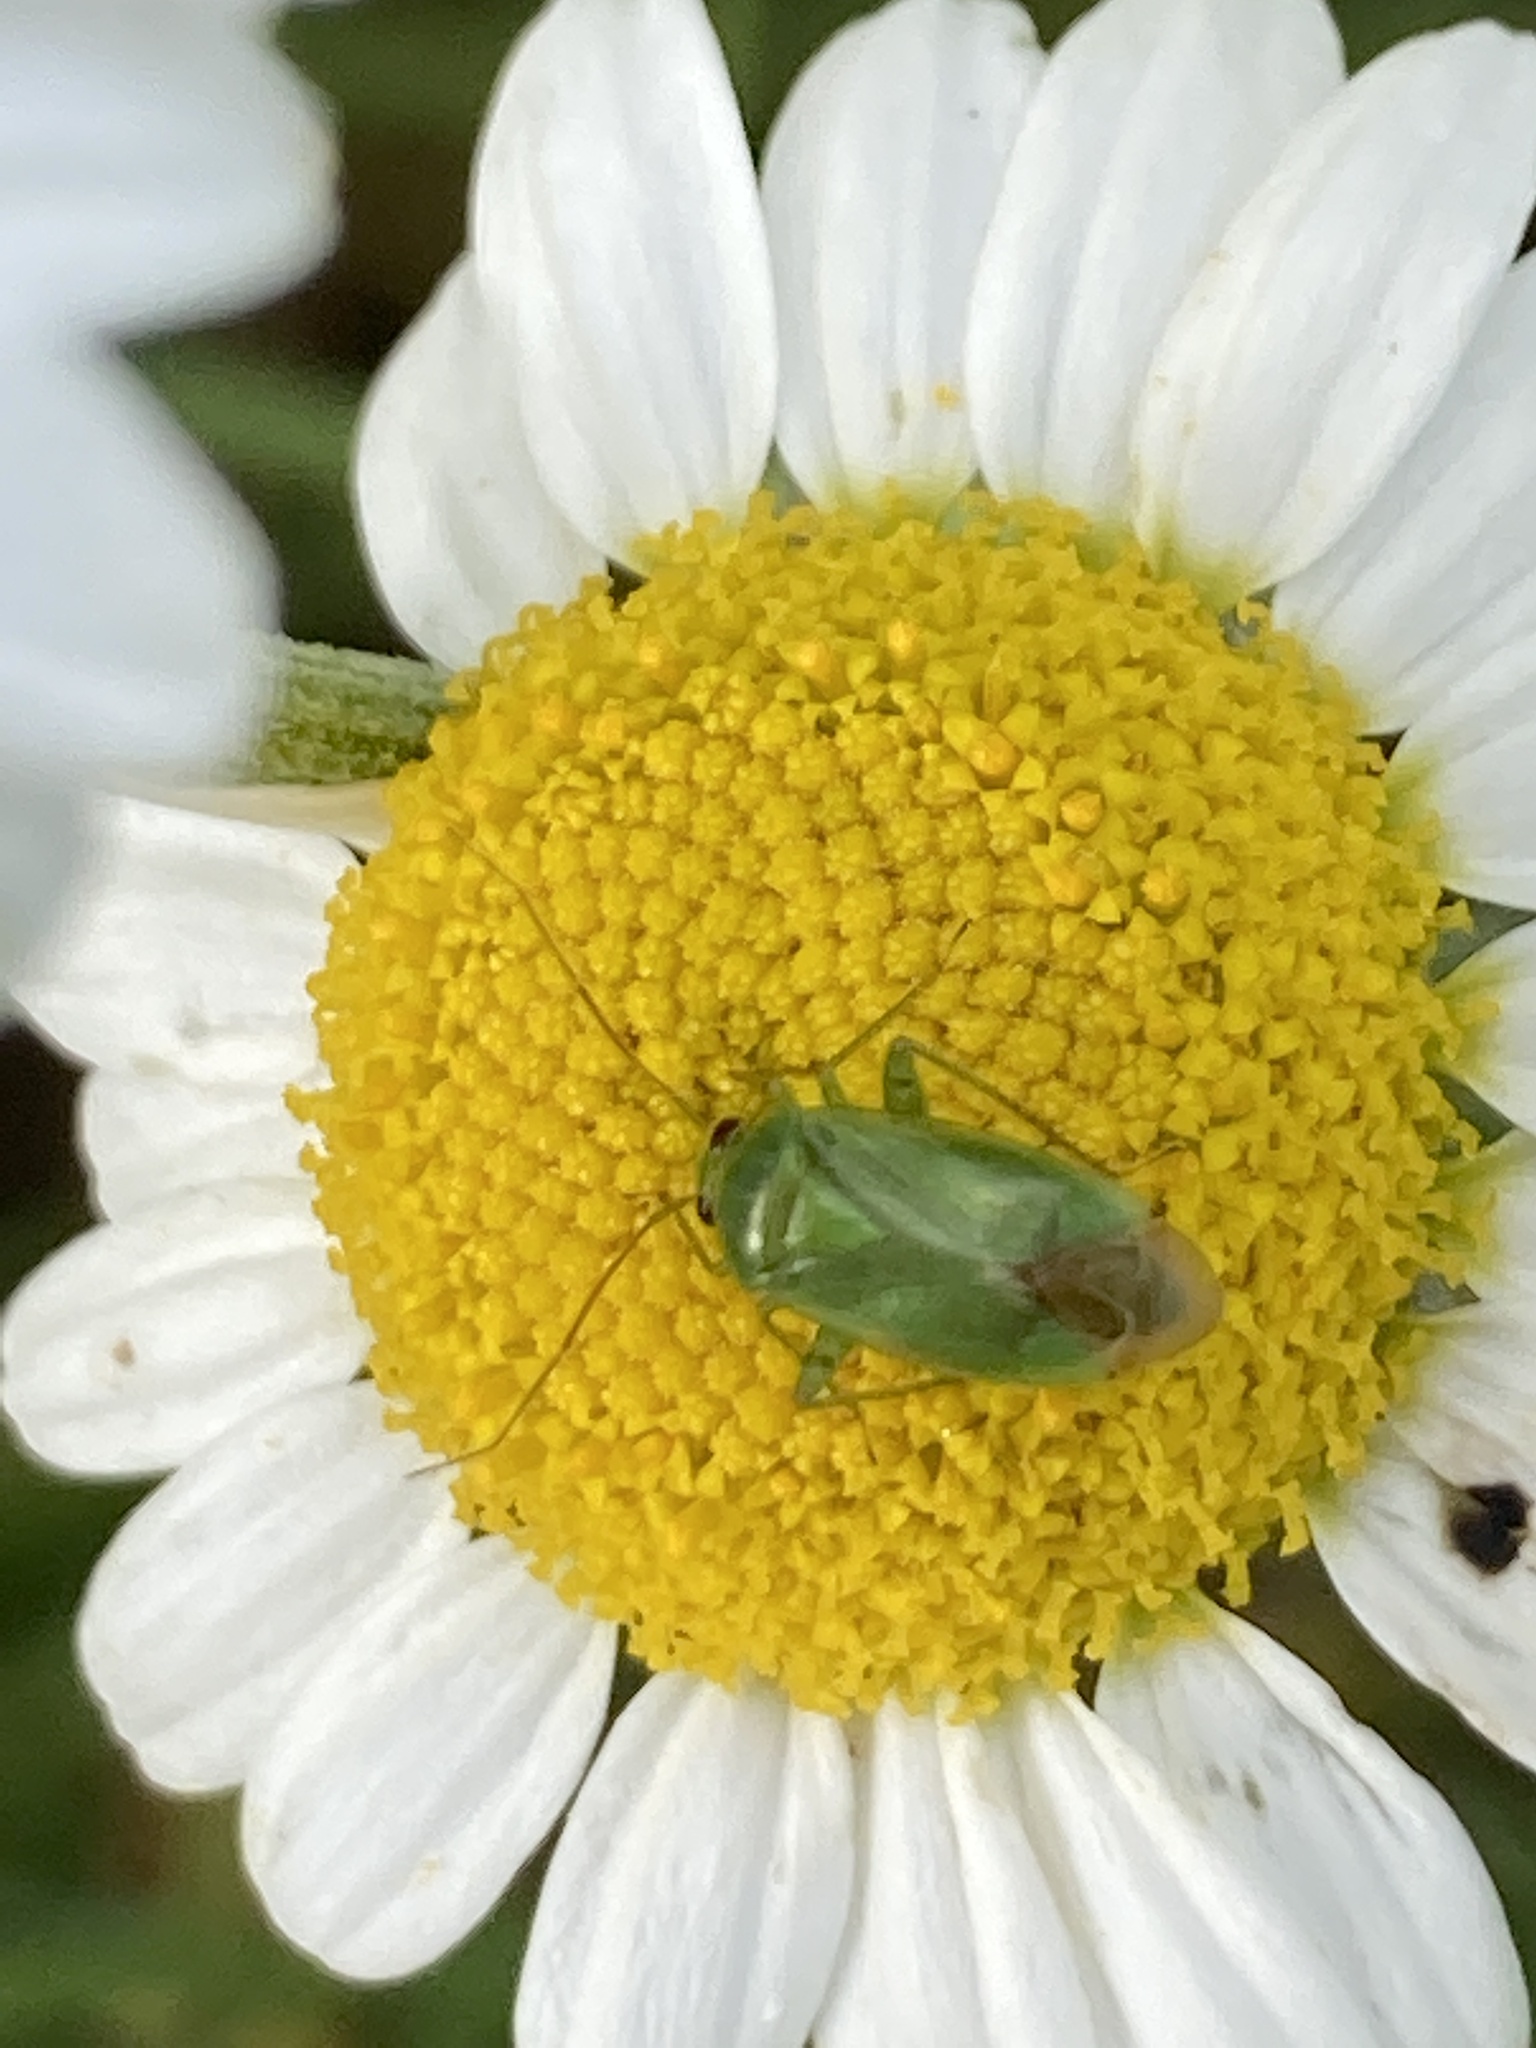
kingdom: Animalia
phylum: Arthropoda
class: Insecta
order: Hemiptera
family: Miridae
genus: Apolygus
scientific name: Apolygus spinolae
